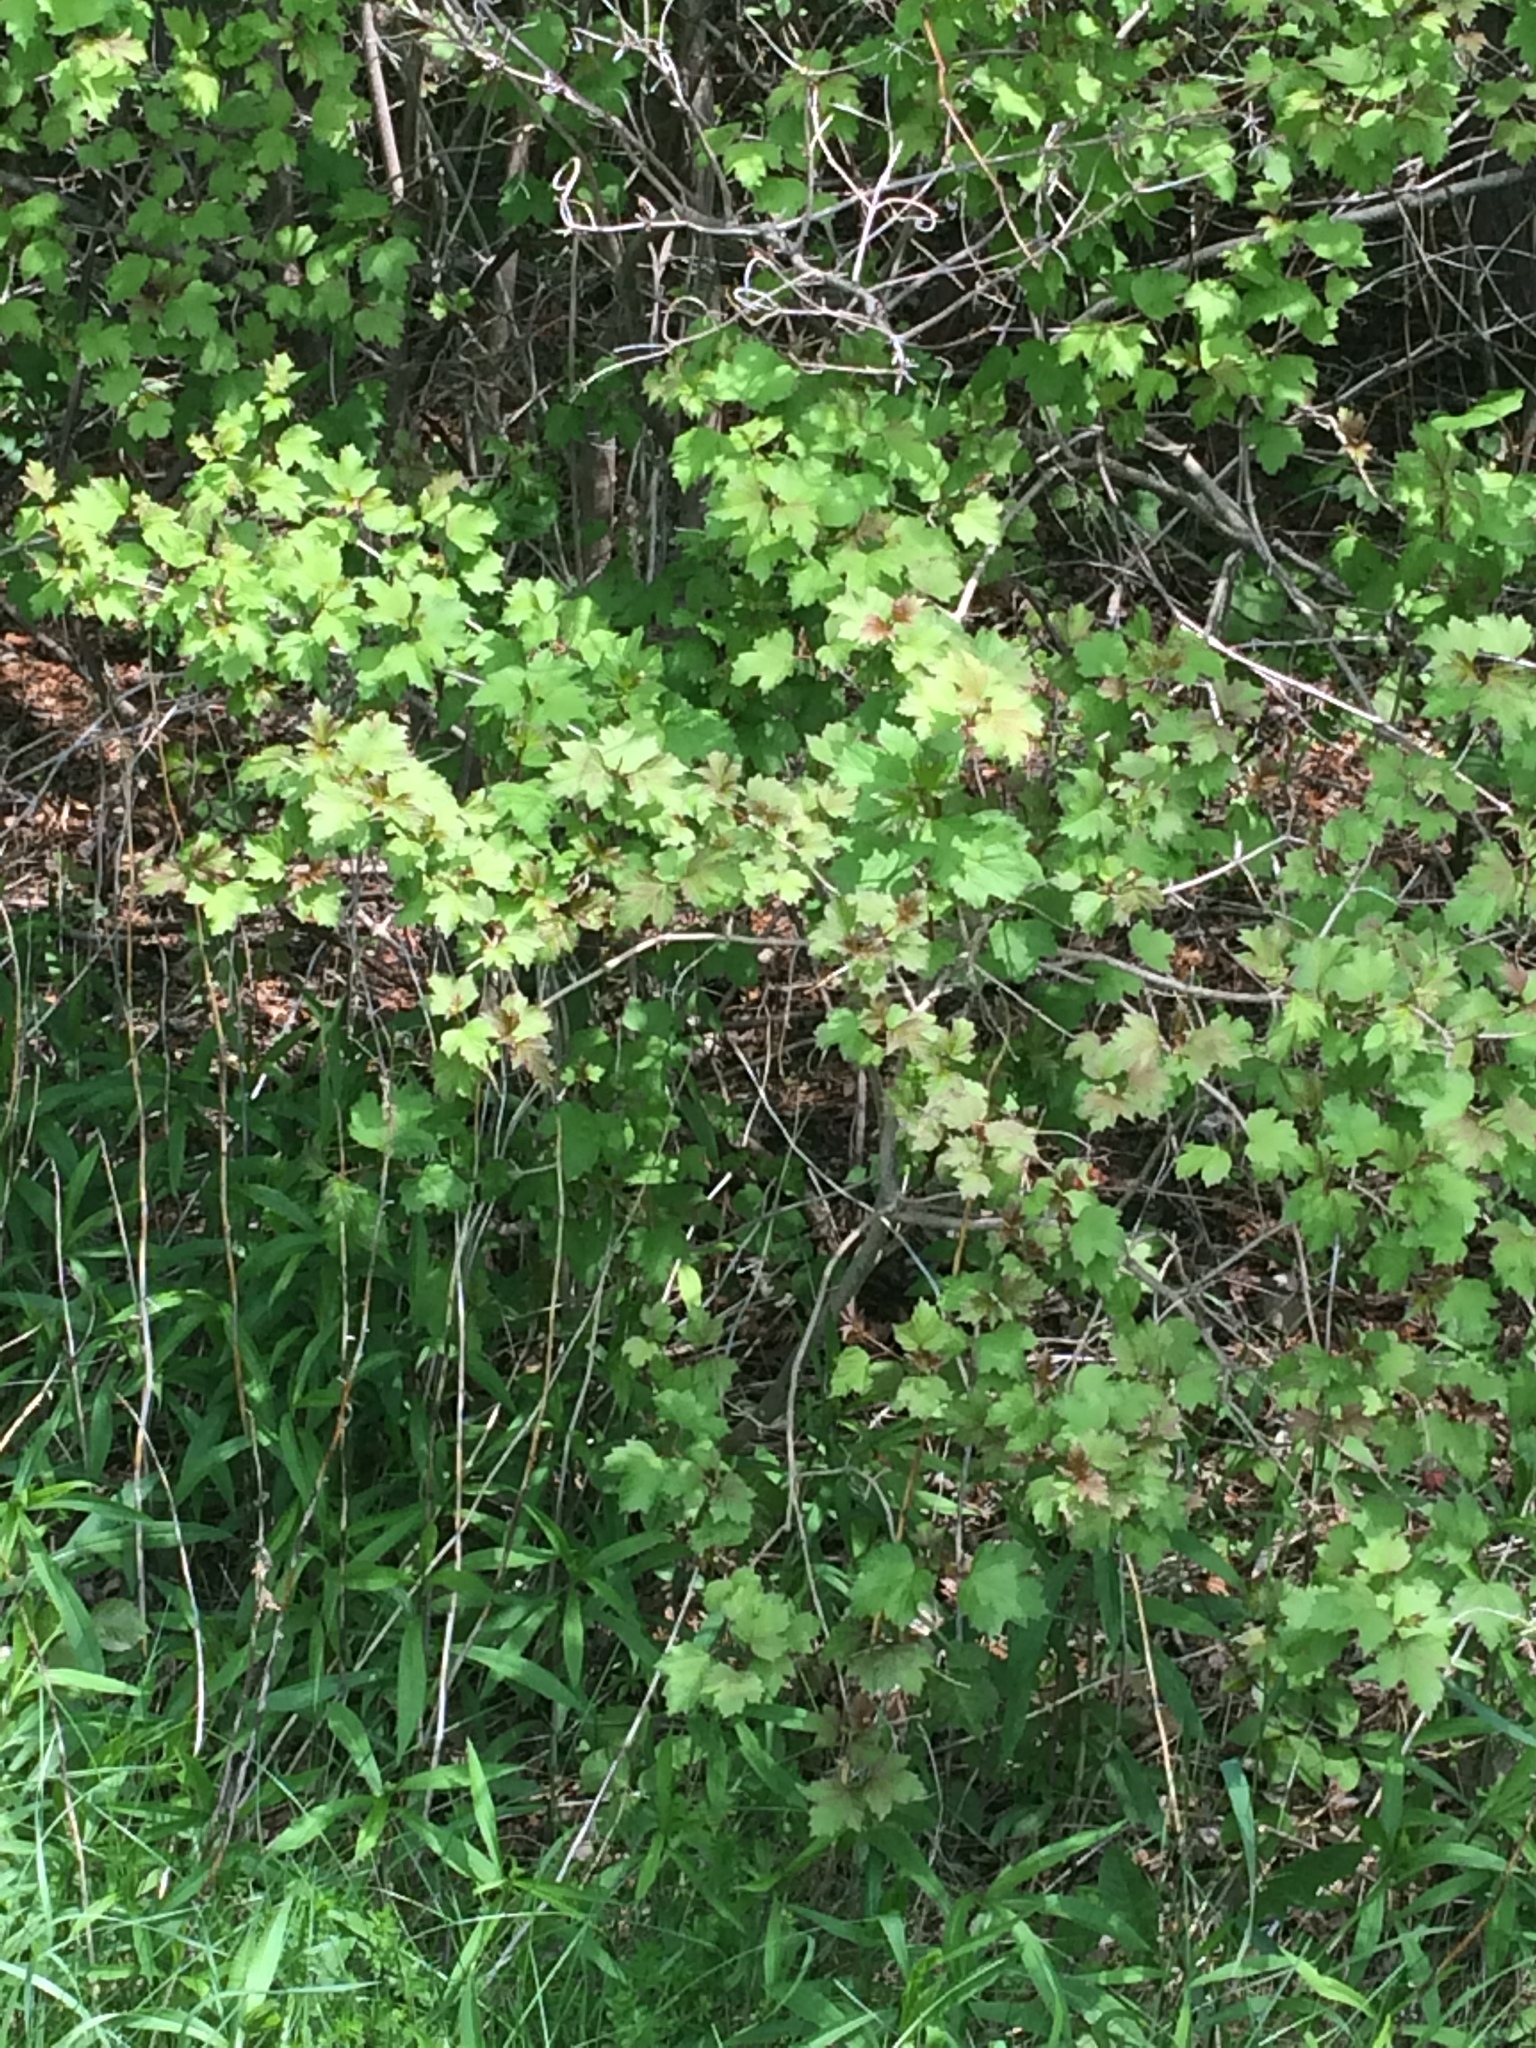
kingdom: Plantae
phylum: Tracheophyta
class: Magnoliopsida
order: Dipsacales
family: Viburnaceae
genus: Viburnum
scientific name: Viburnum opulus
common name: Guelder-rose
